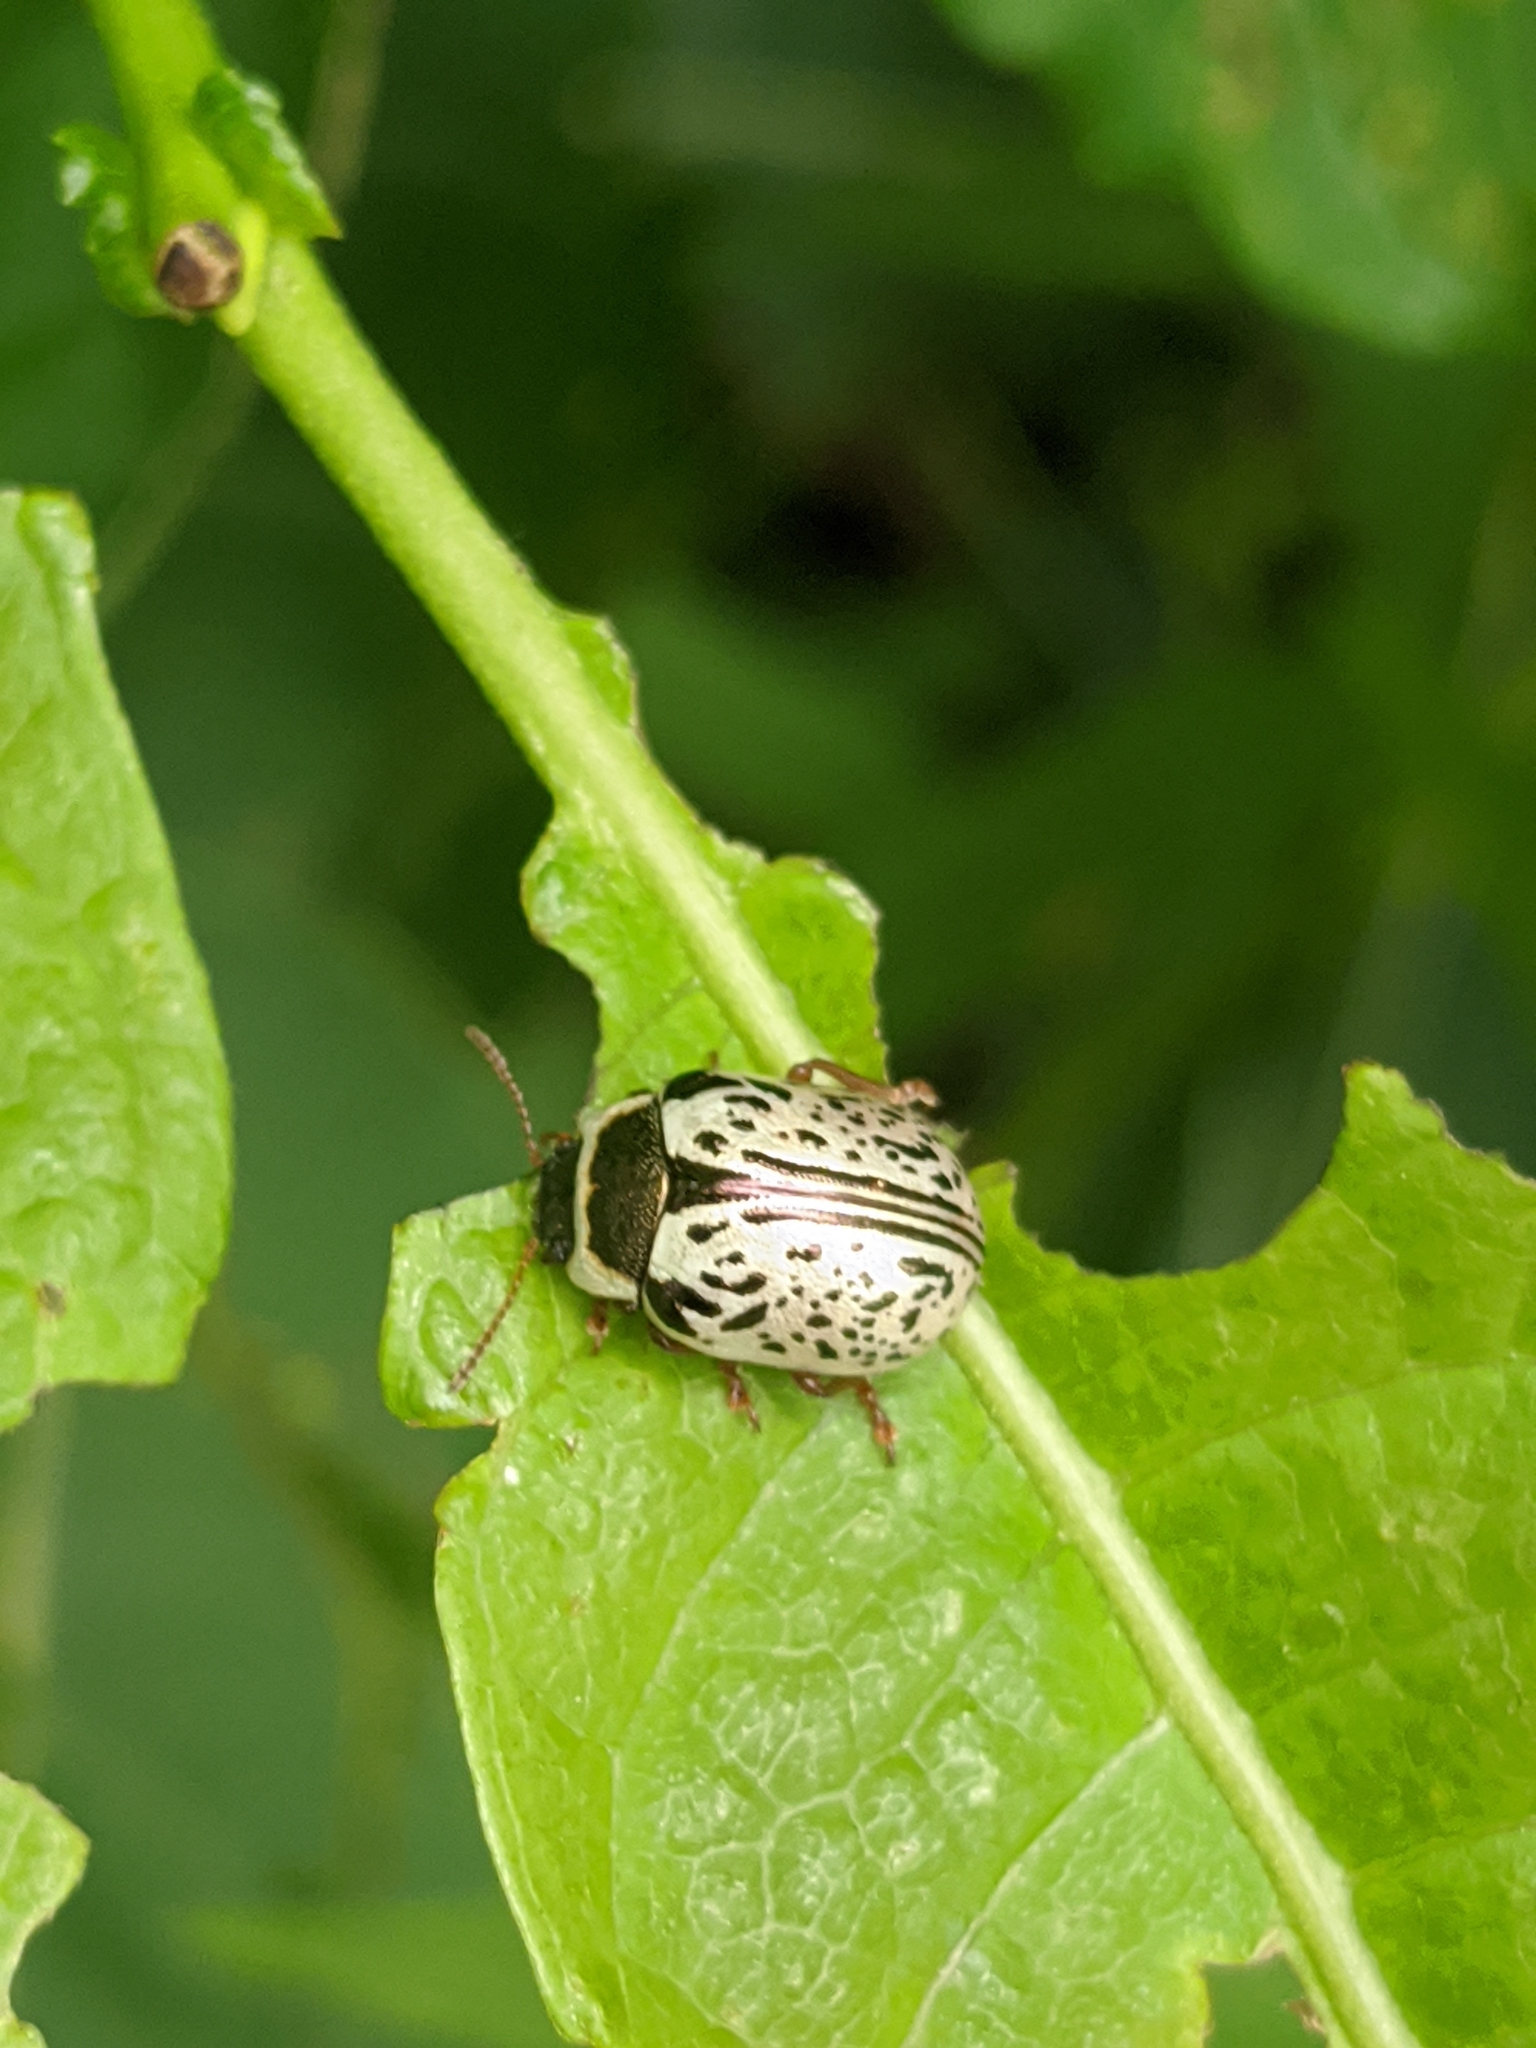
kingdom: Animalia
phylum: Arthropoda
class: Insecta
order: Coleoptera
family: Chrysomelidae
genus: Calligrapha
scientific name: Calligrapha multipunctata
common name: Common willow calligrapher beetle
